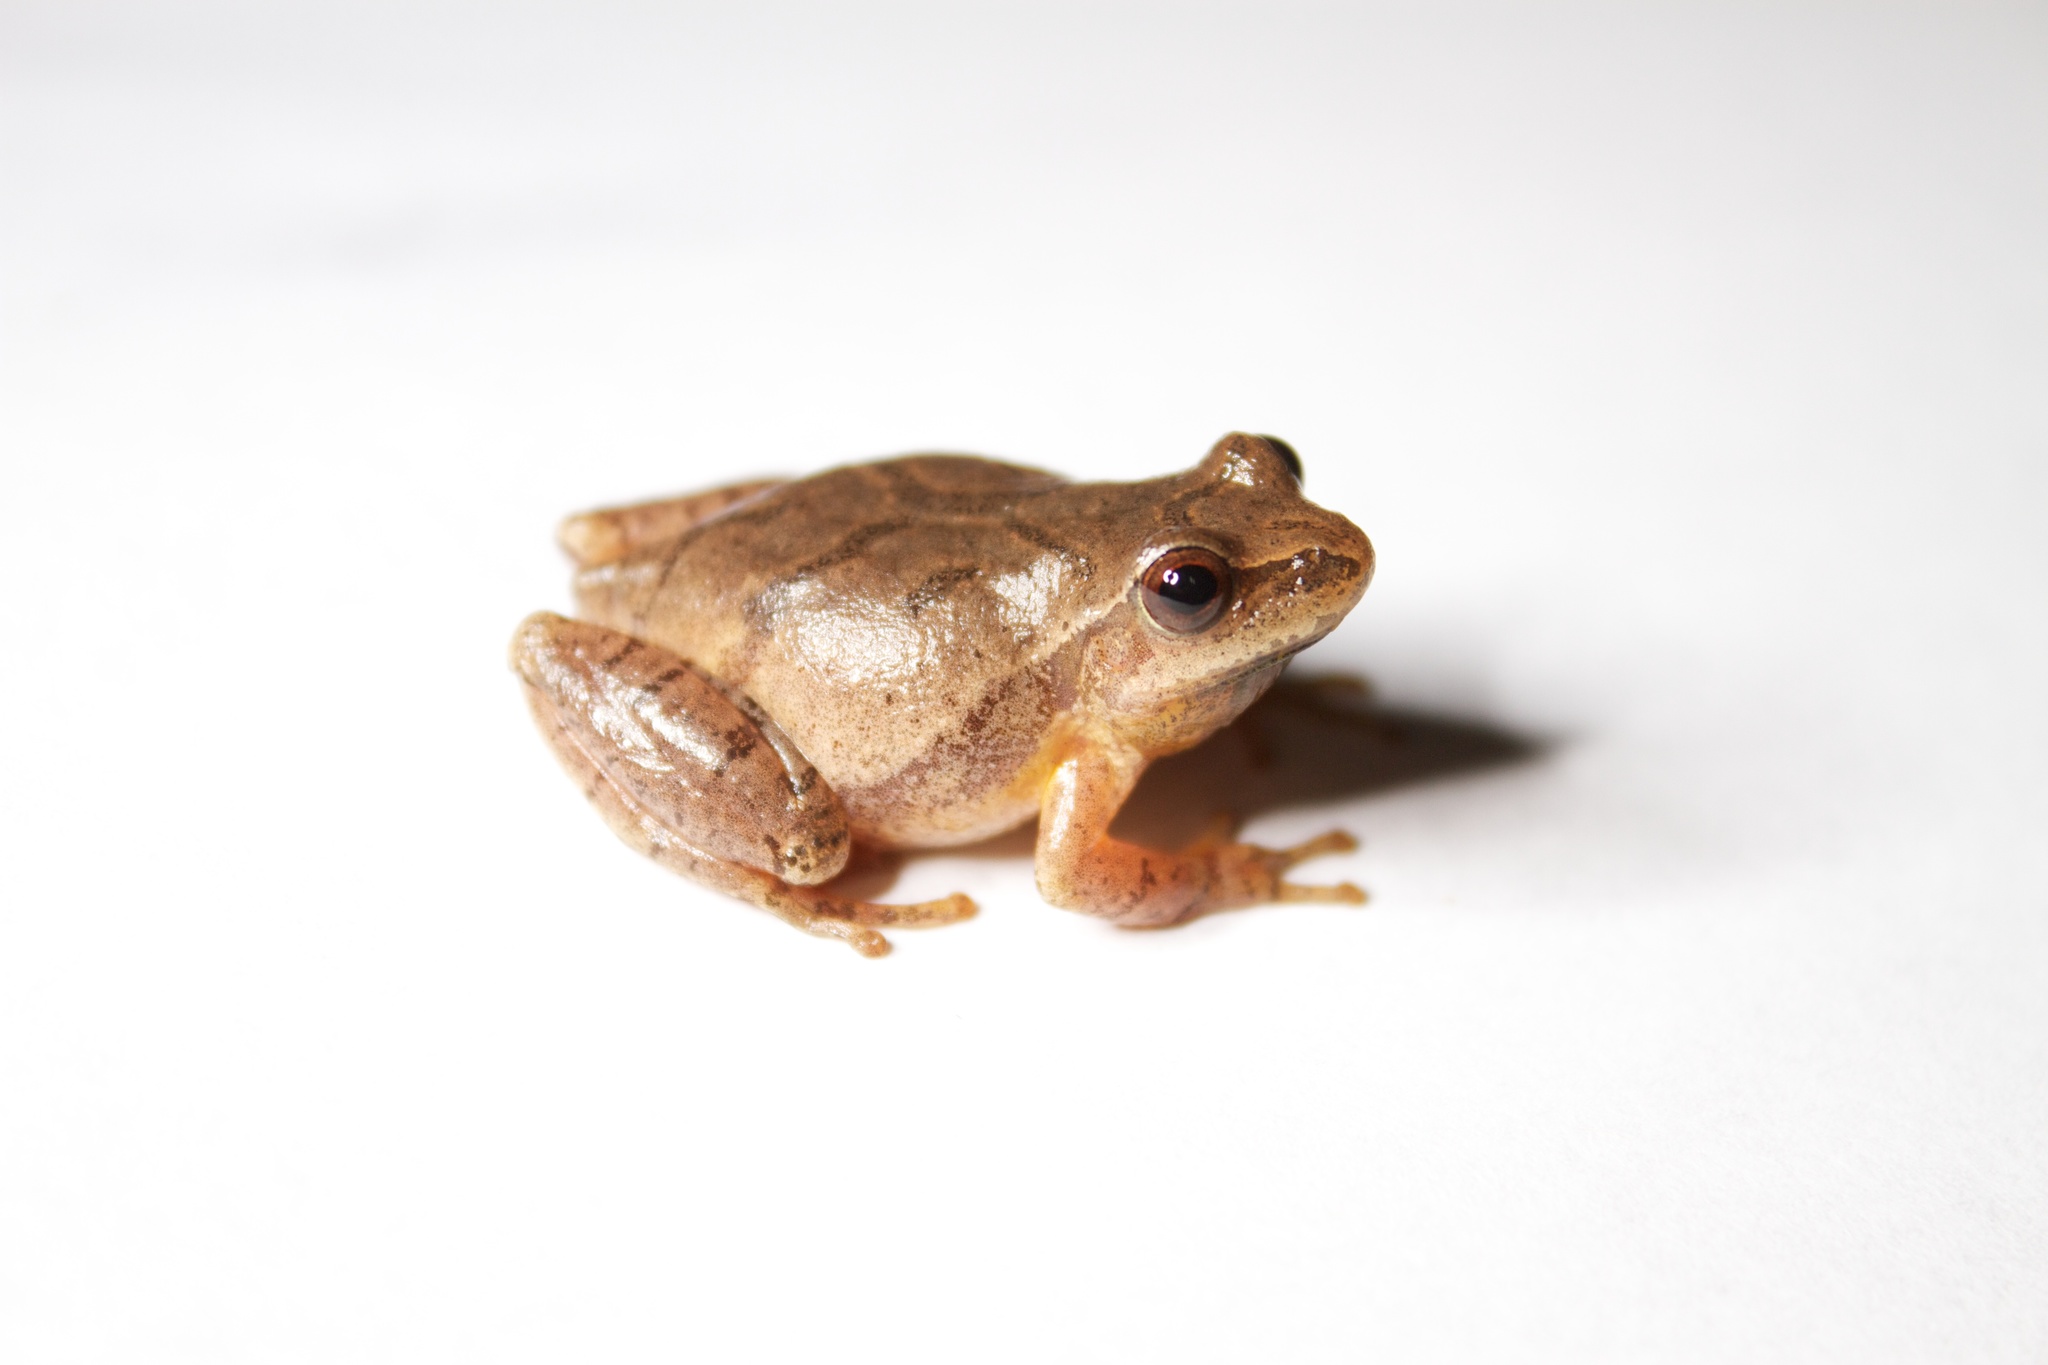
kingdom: Animalia
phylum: Chordata
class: Amphibia
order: Anura
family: Hylidae
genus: Pseudacris
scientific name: Pseudacris crucifer
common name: Spring peeper
